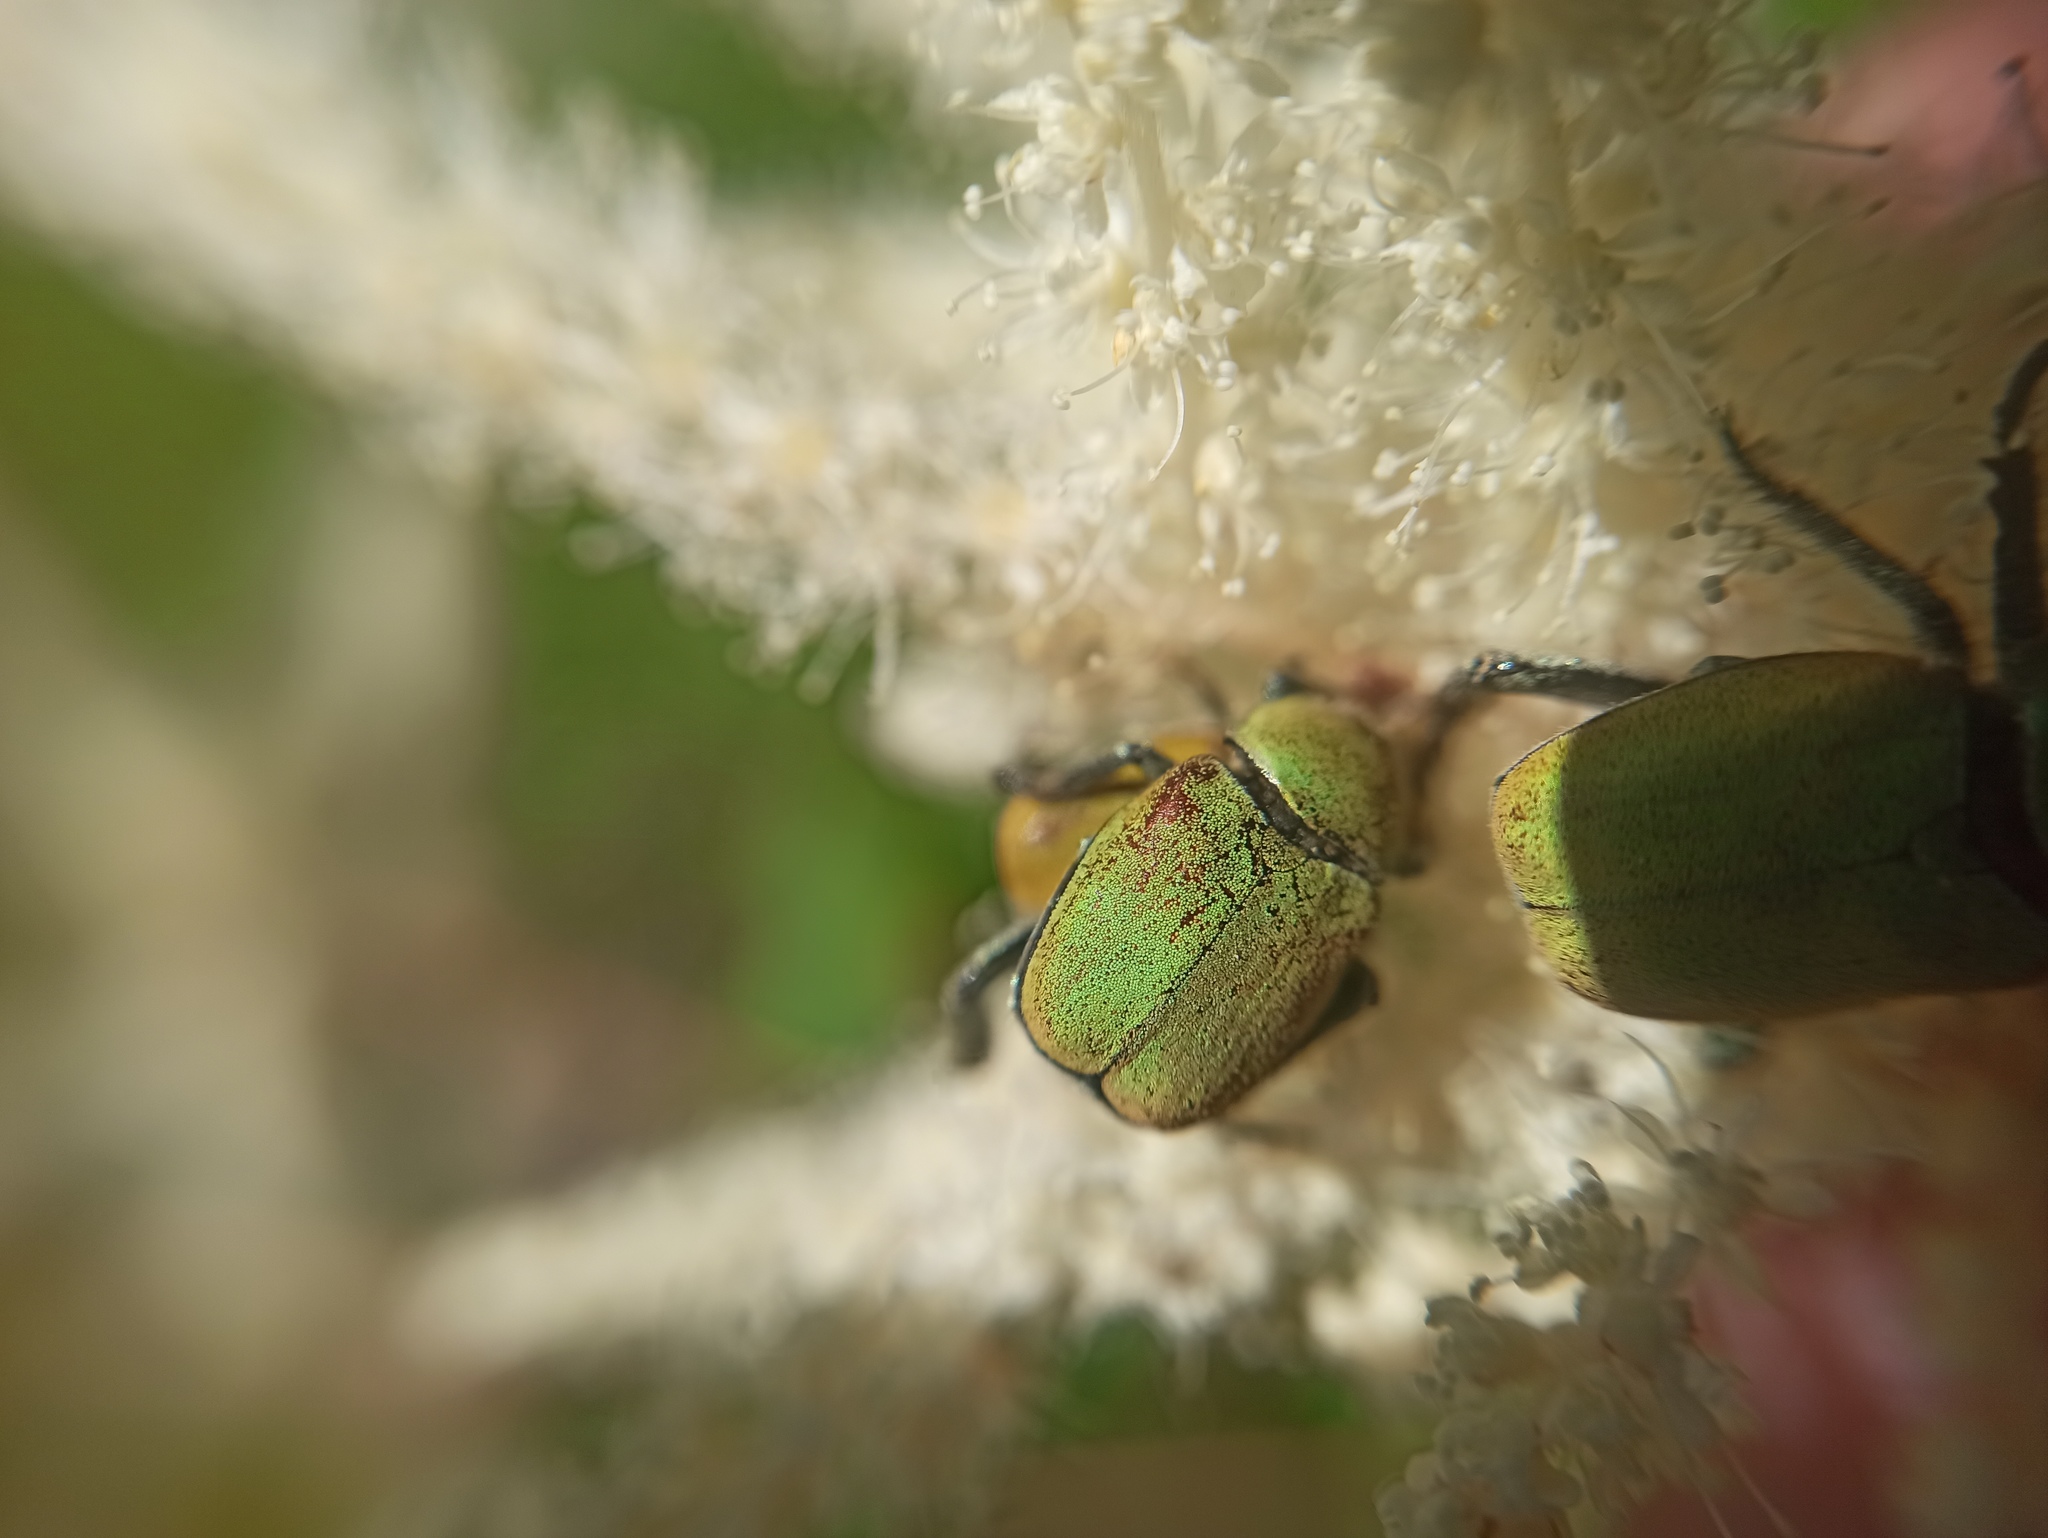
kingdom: Animalia
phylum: Arthropoda
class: Insecta
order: Coleoptera
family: Scarabaeidae
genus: Hoplia
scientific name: Hoplia argentea
